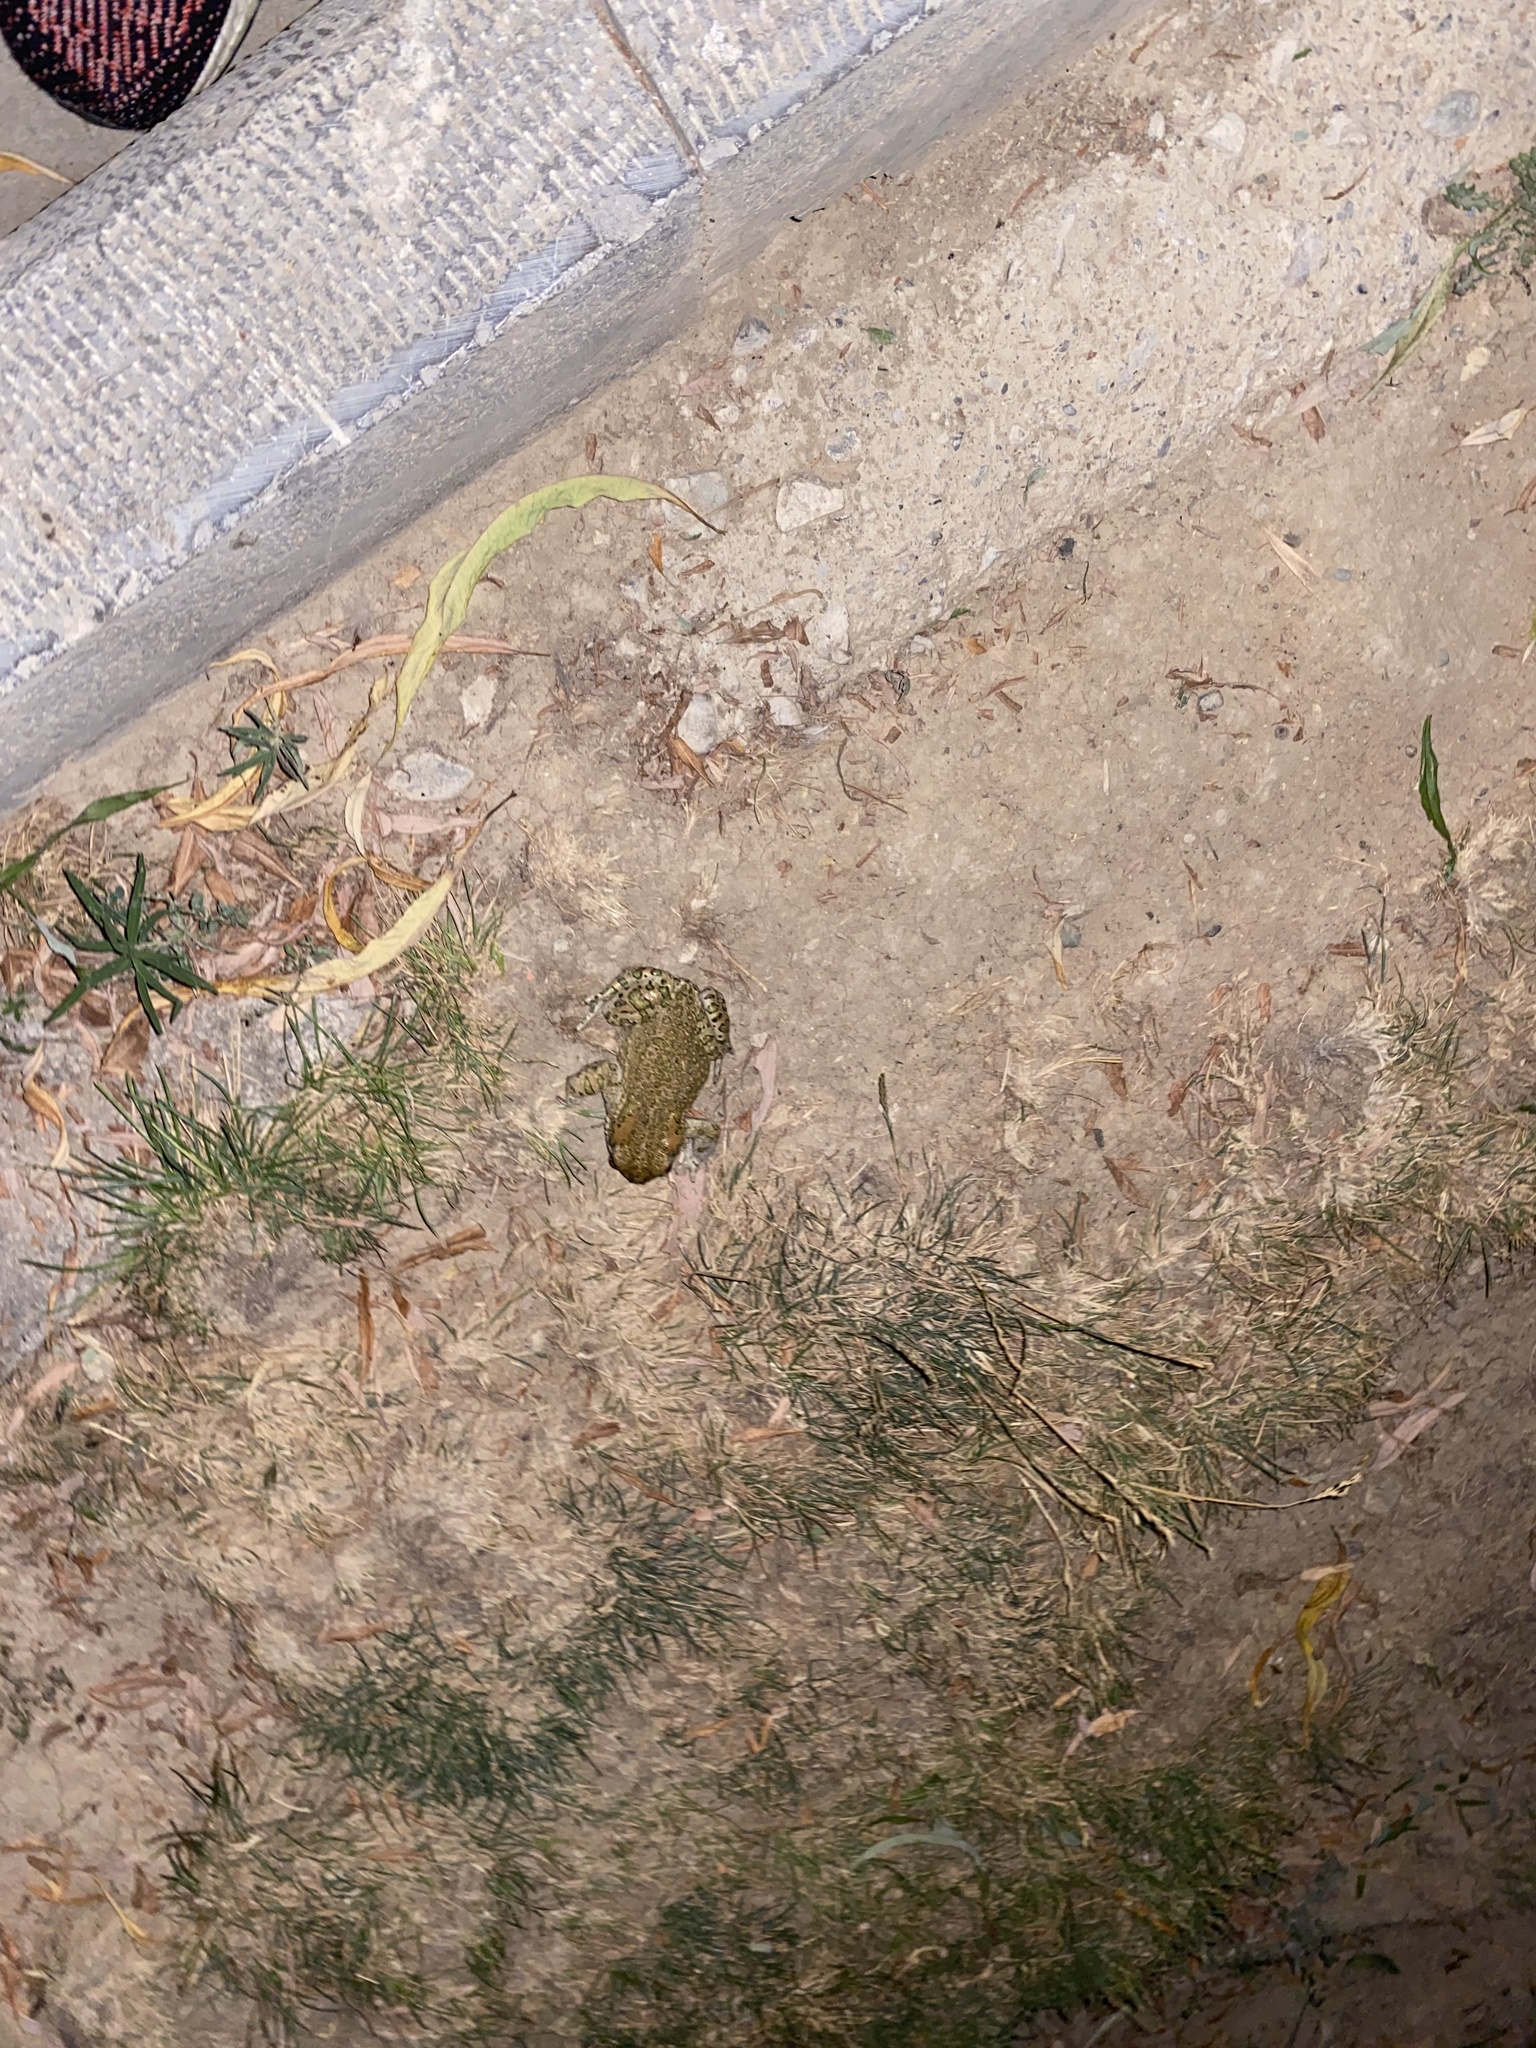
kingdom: Animalia
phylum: Chordata
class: Amphibia
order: Anura
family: Bufonidae
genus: Bufotes
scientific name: Bufotes viridis
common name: European green toad
